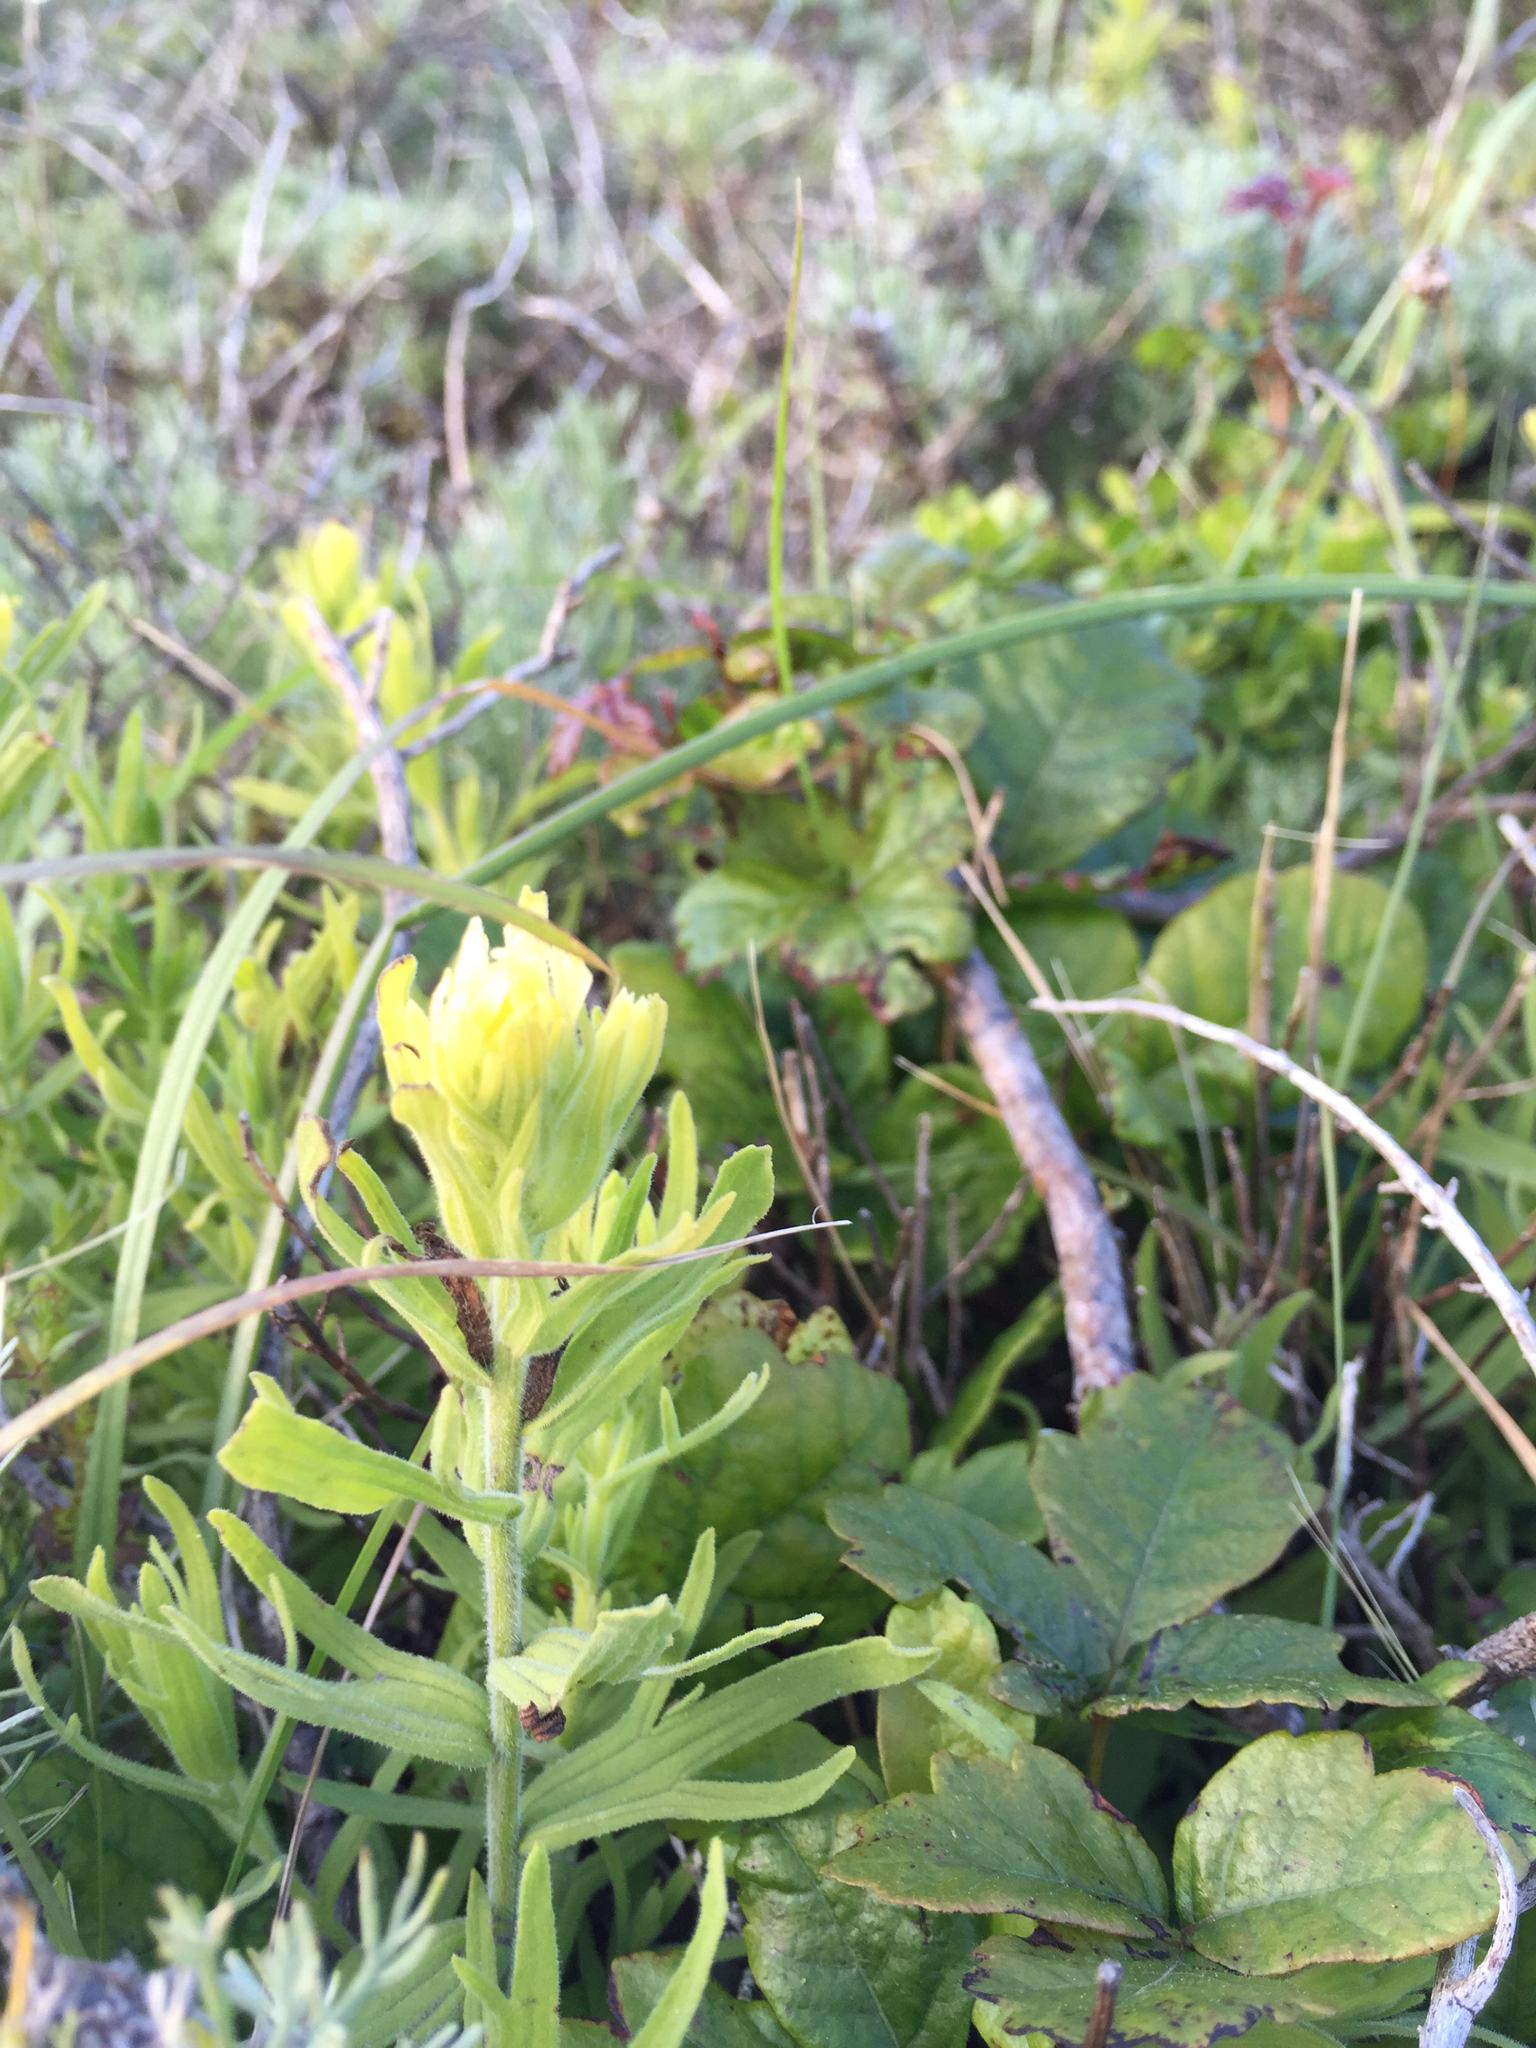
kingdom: Plantae
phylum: Tracheophyta
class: Magnoliopsida
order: Lamiales
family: Orobanchaceae
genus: Castilleja
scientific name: Castilleja wightii
